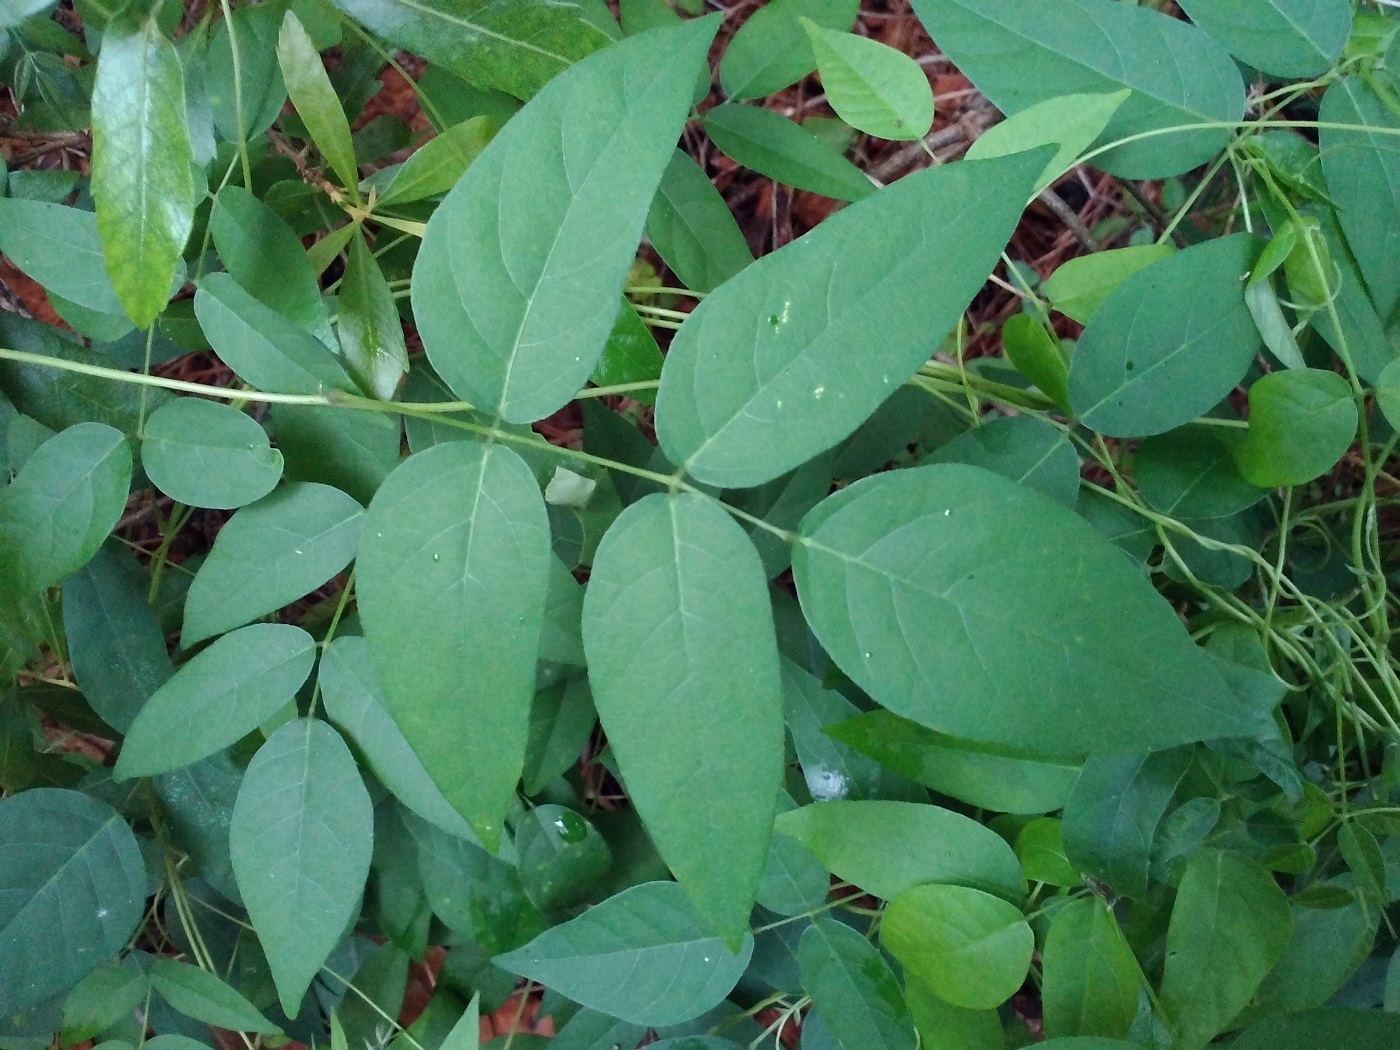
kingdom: Plantae
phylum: Tracheophyta
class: Magnoliopsida
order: Fabales
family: Fabaceae
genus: Apios
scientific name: Apios americana
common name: American potato-bean
